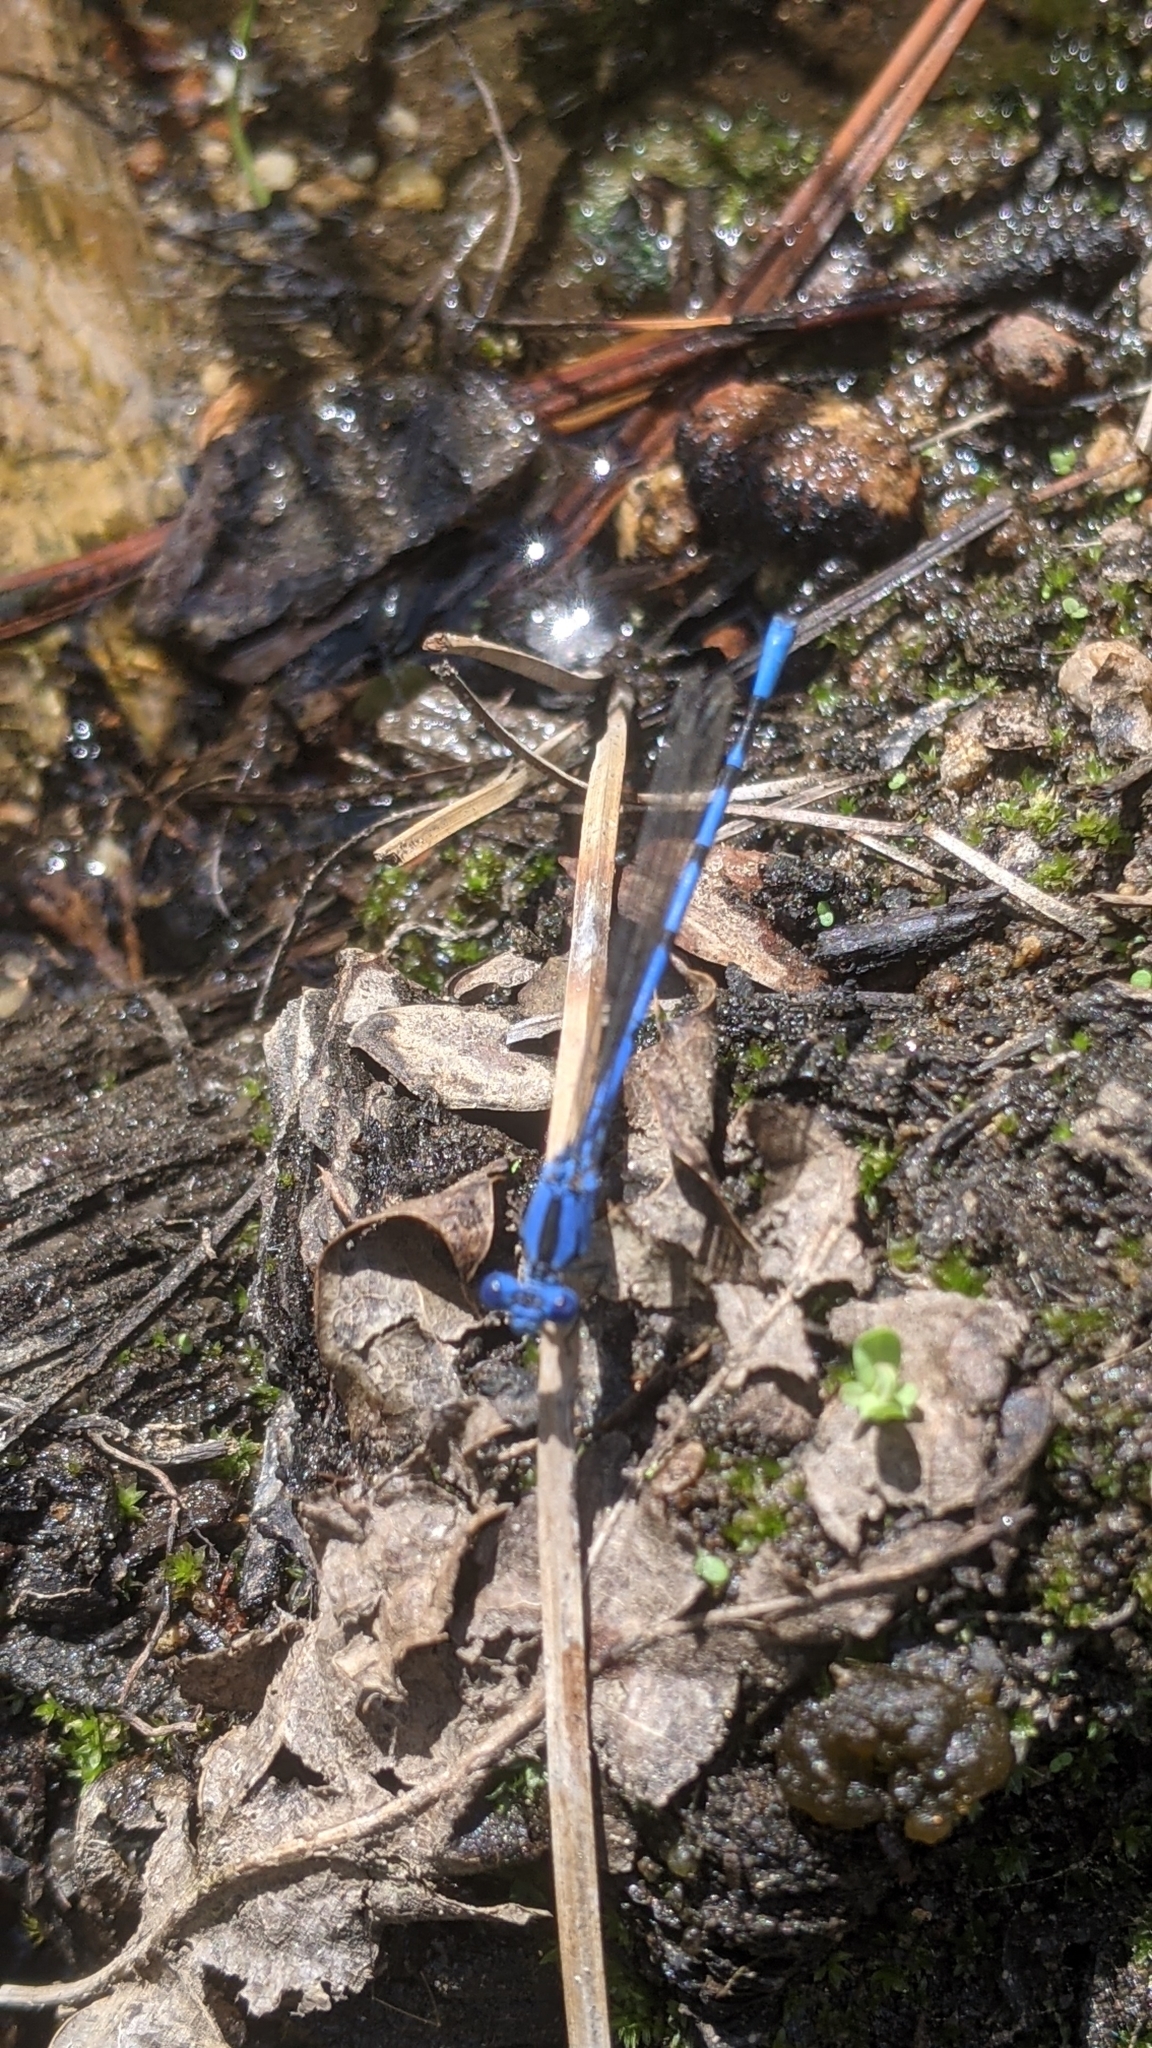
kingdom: Animalia
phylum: Arthropoda
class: Insecta
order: Odonata
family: Coenagrionidae
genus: Argia
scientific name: Argia vivida
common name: Vivid dancer
